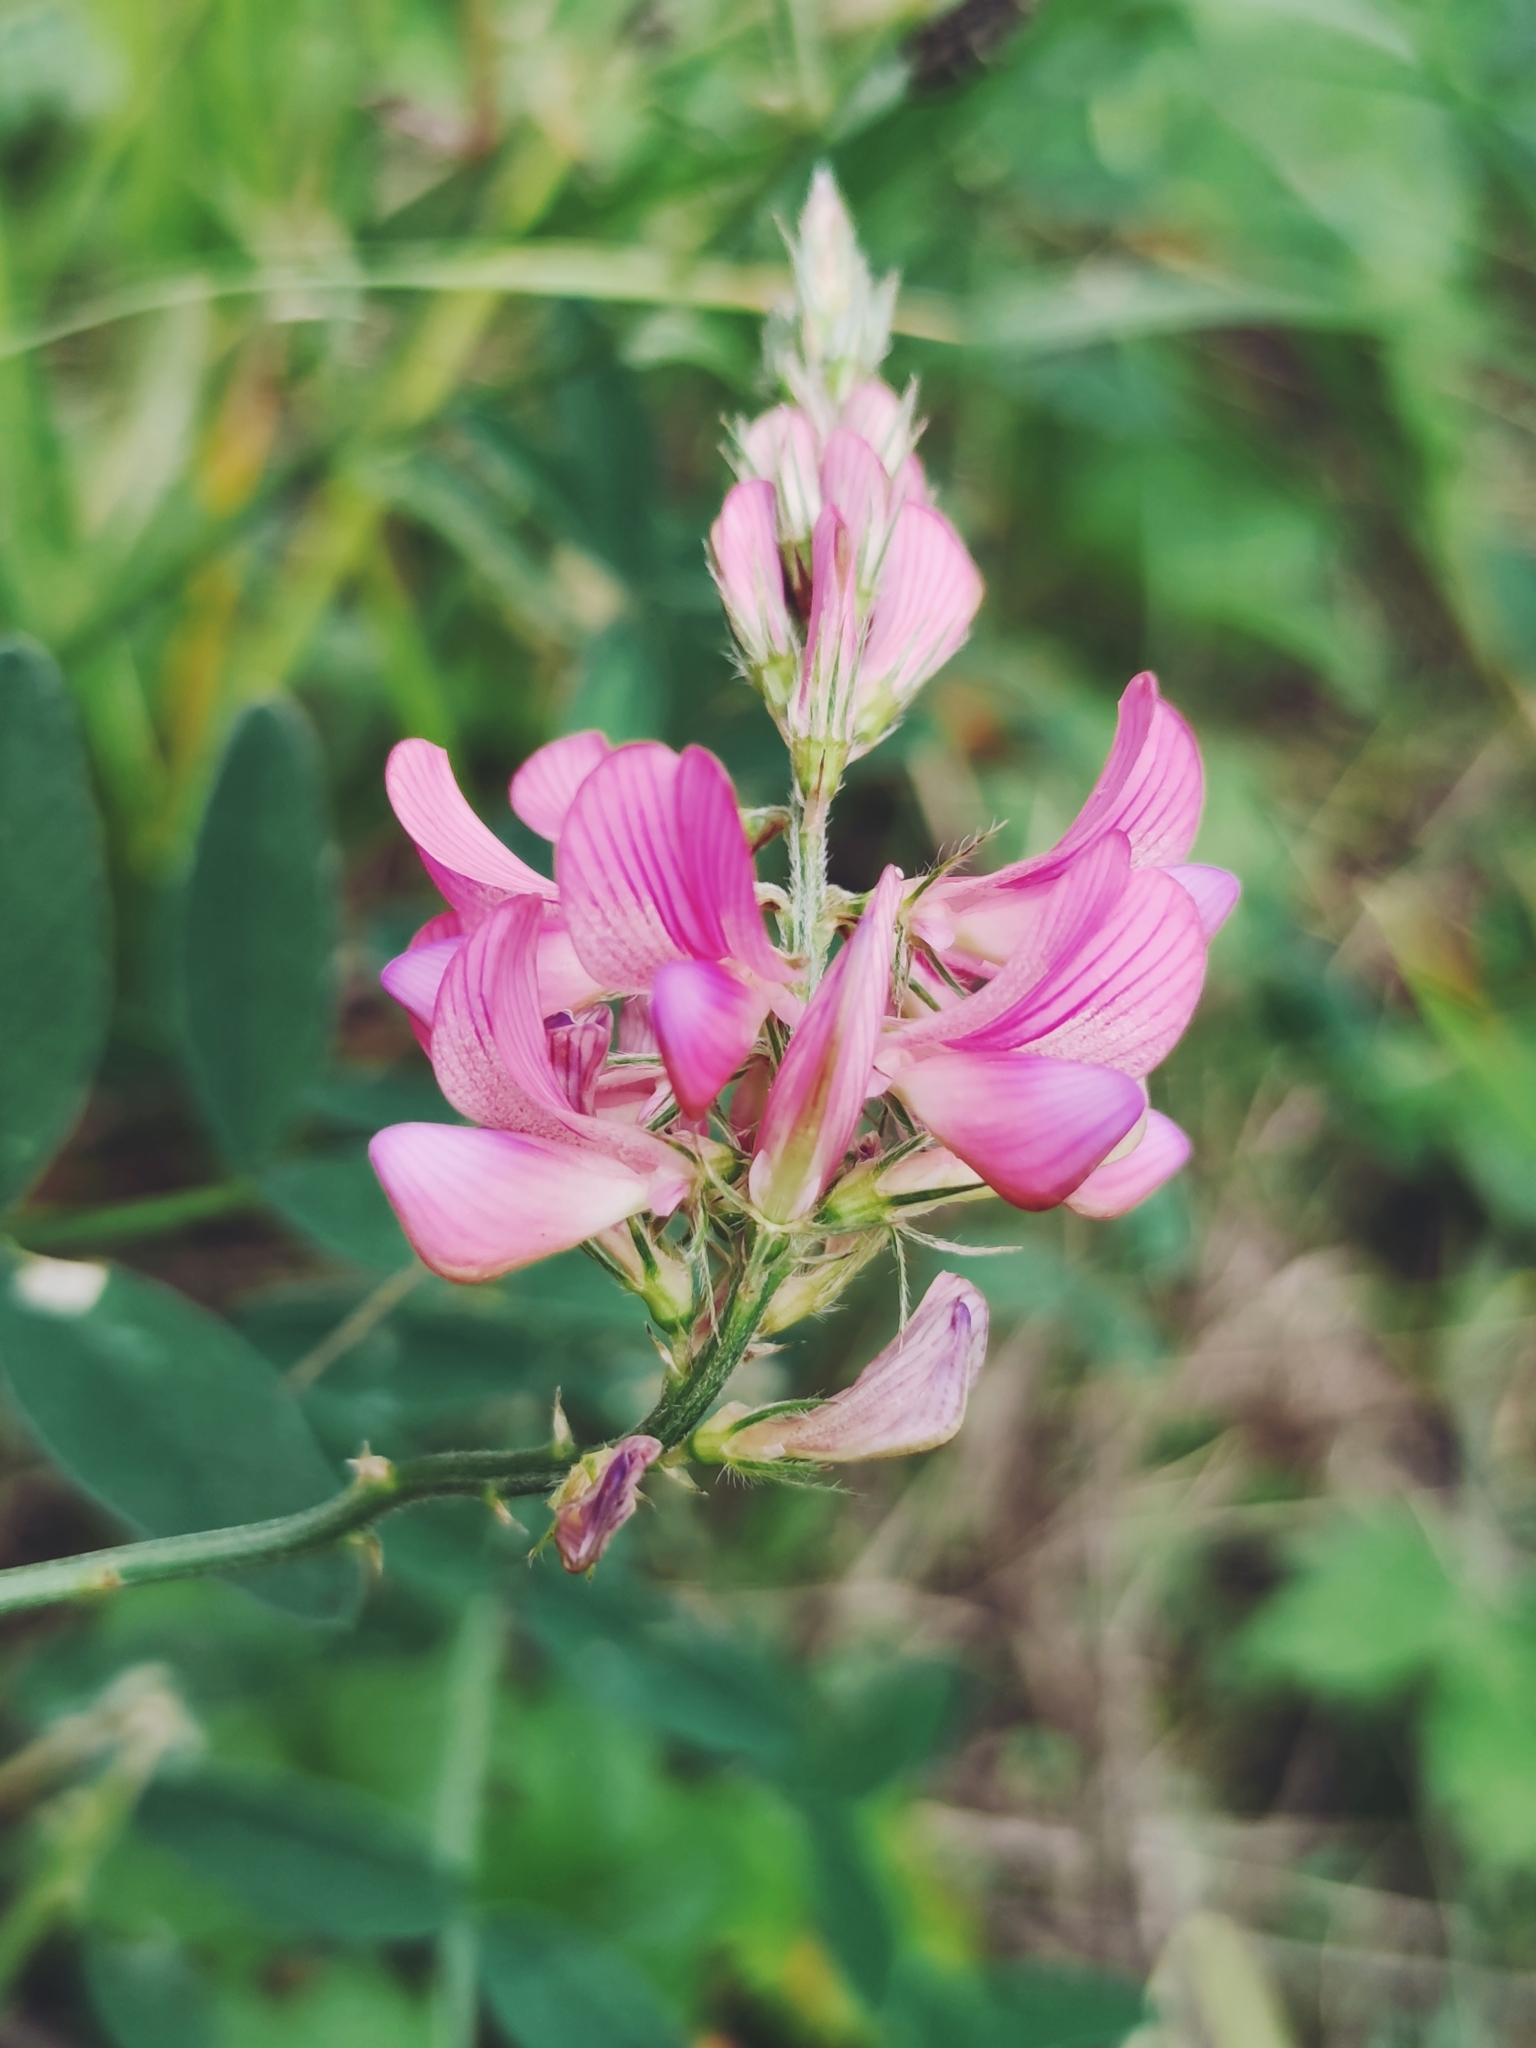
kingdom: Plantae
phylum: Tracheophyta
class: Magnoliopsida
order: Fabales
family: Fabaceae
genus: Onobrychis
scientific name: Onobrychis viciifolia
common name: Sainfoin
